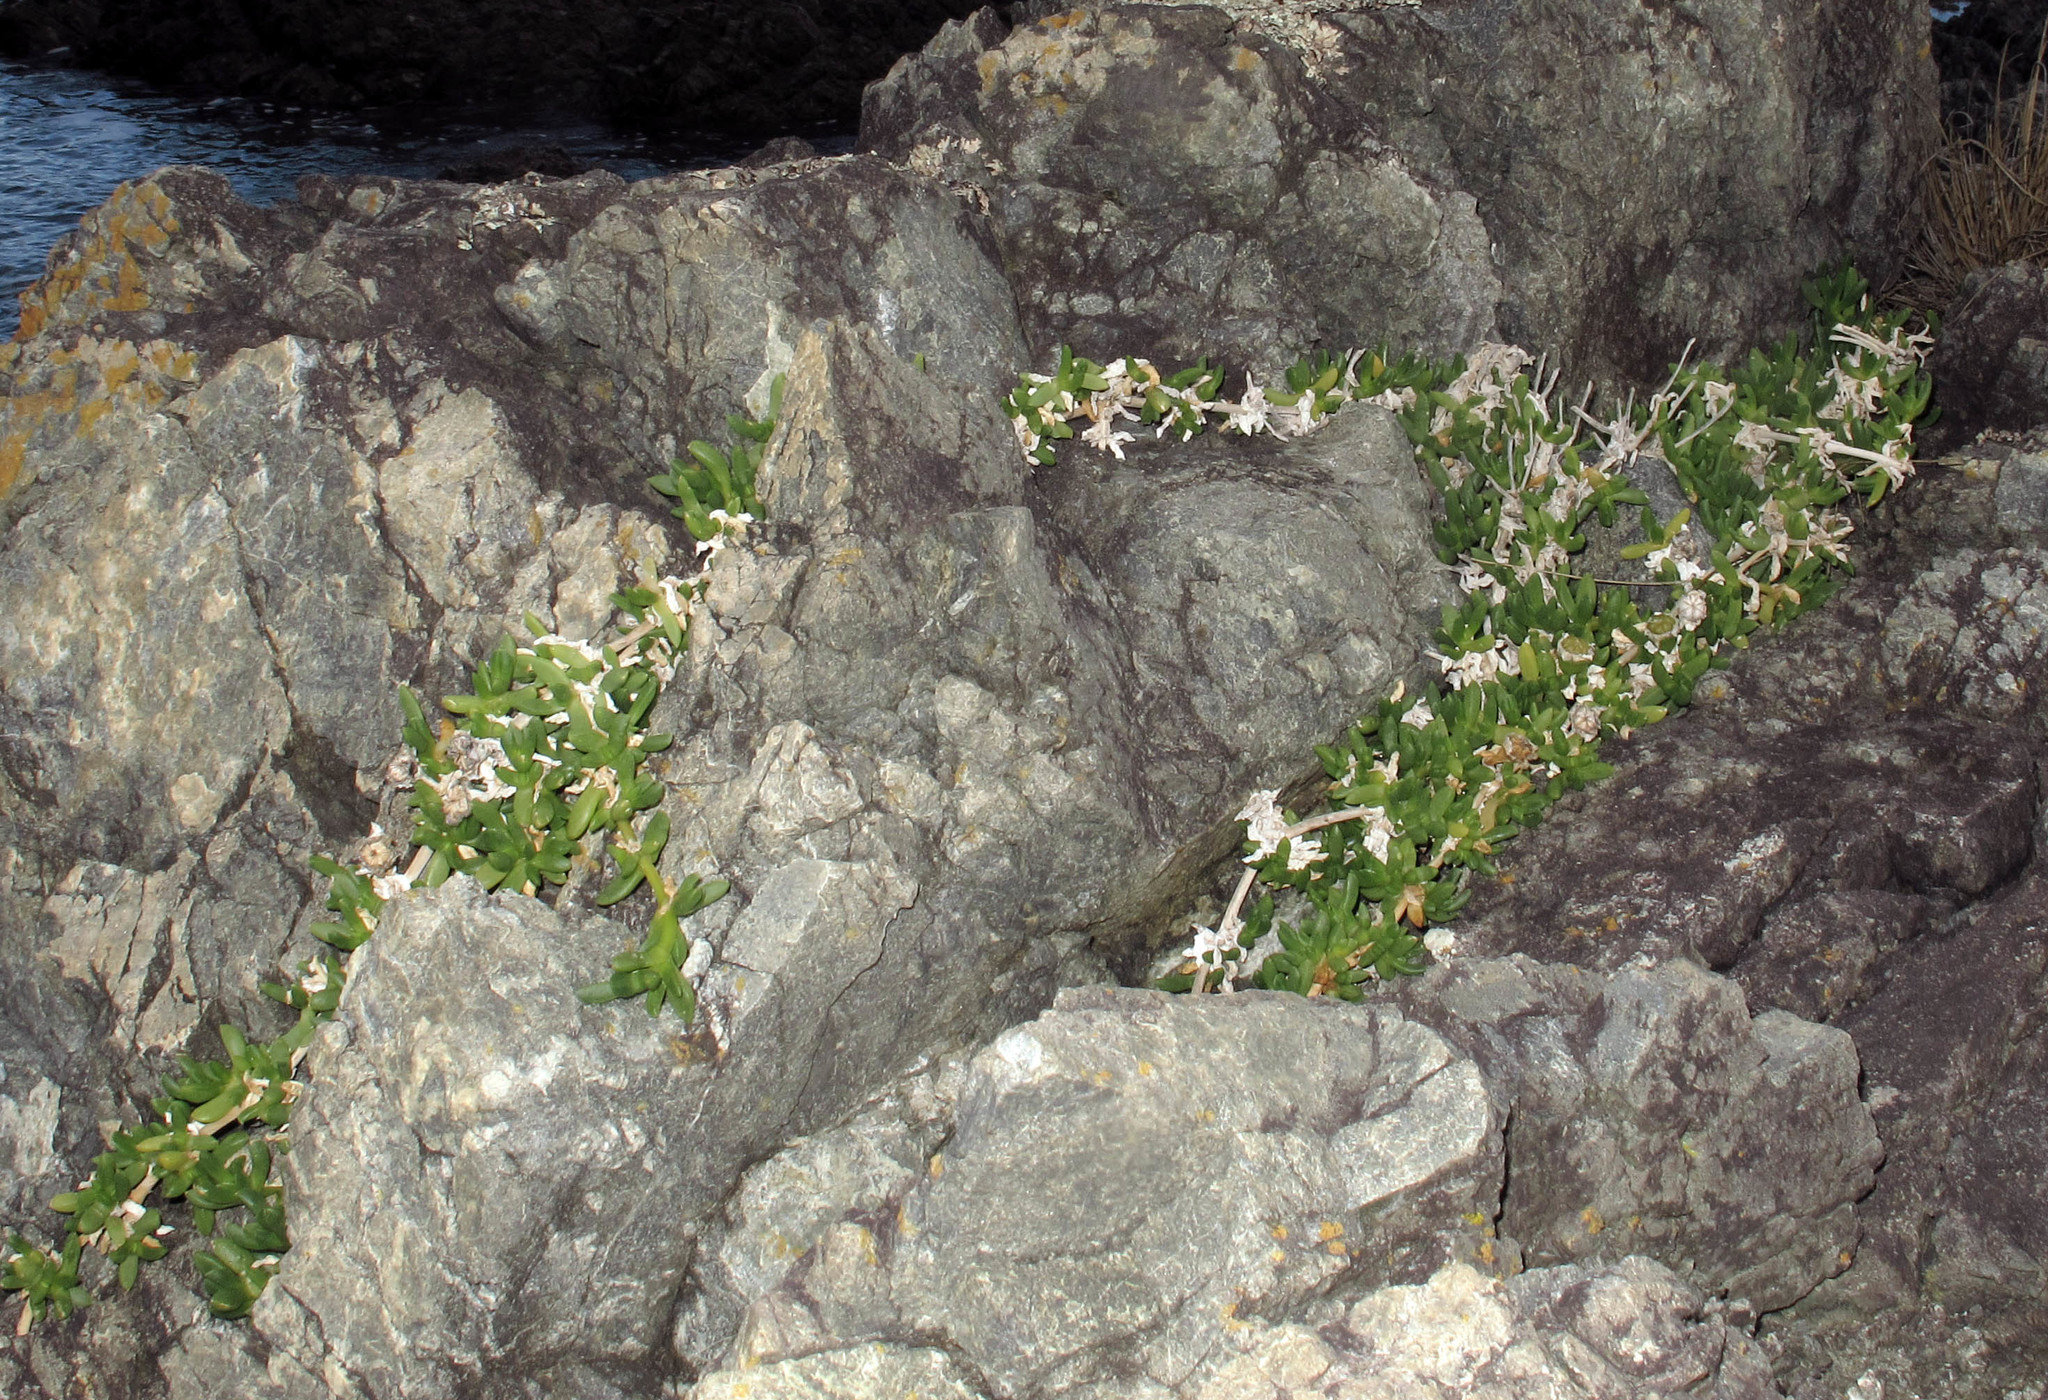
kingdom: Plantae
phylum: Tracheophyta
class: Magnoliopsida
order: Caryophyllales
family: Aizoaceae
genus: Disphyma
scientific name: Disphyma australe
